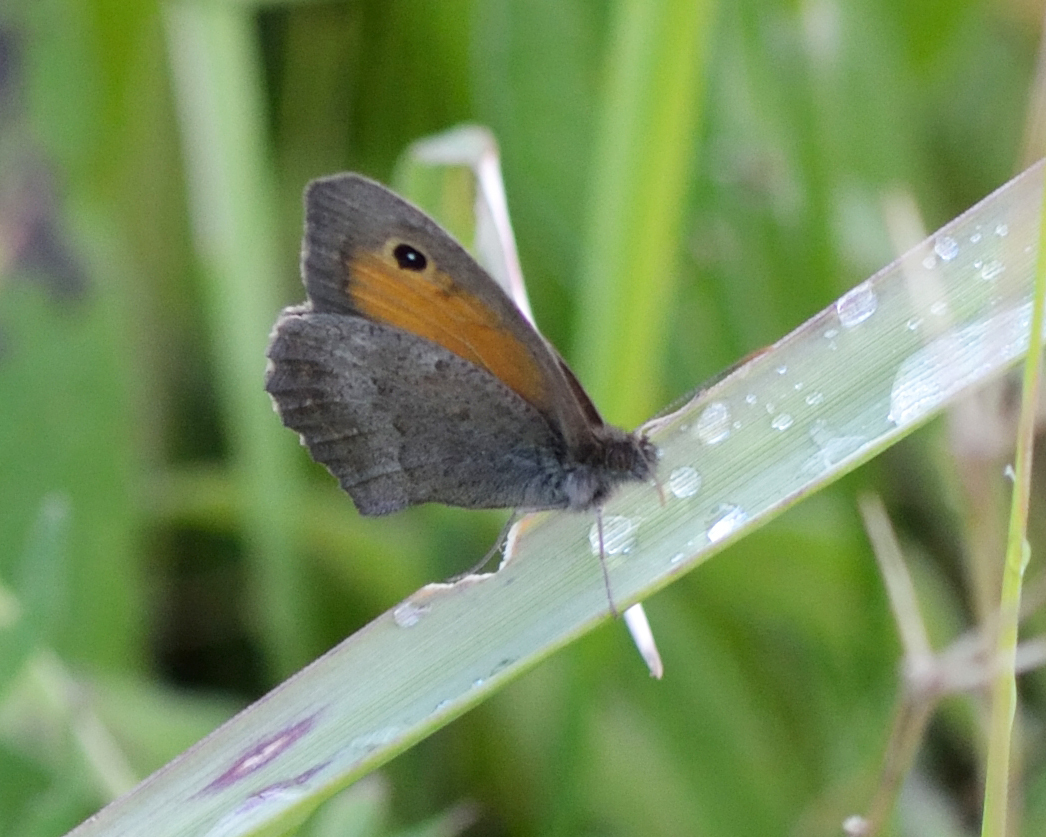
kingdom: Animalia
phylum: Arthropoda
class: Insecta
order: Lepidoptera
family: Nymphalidae
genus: Hyponephele
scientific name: Hyponephele lycaon
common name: Dusky meadow brown
